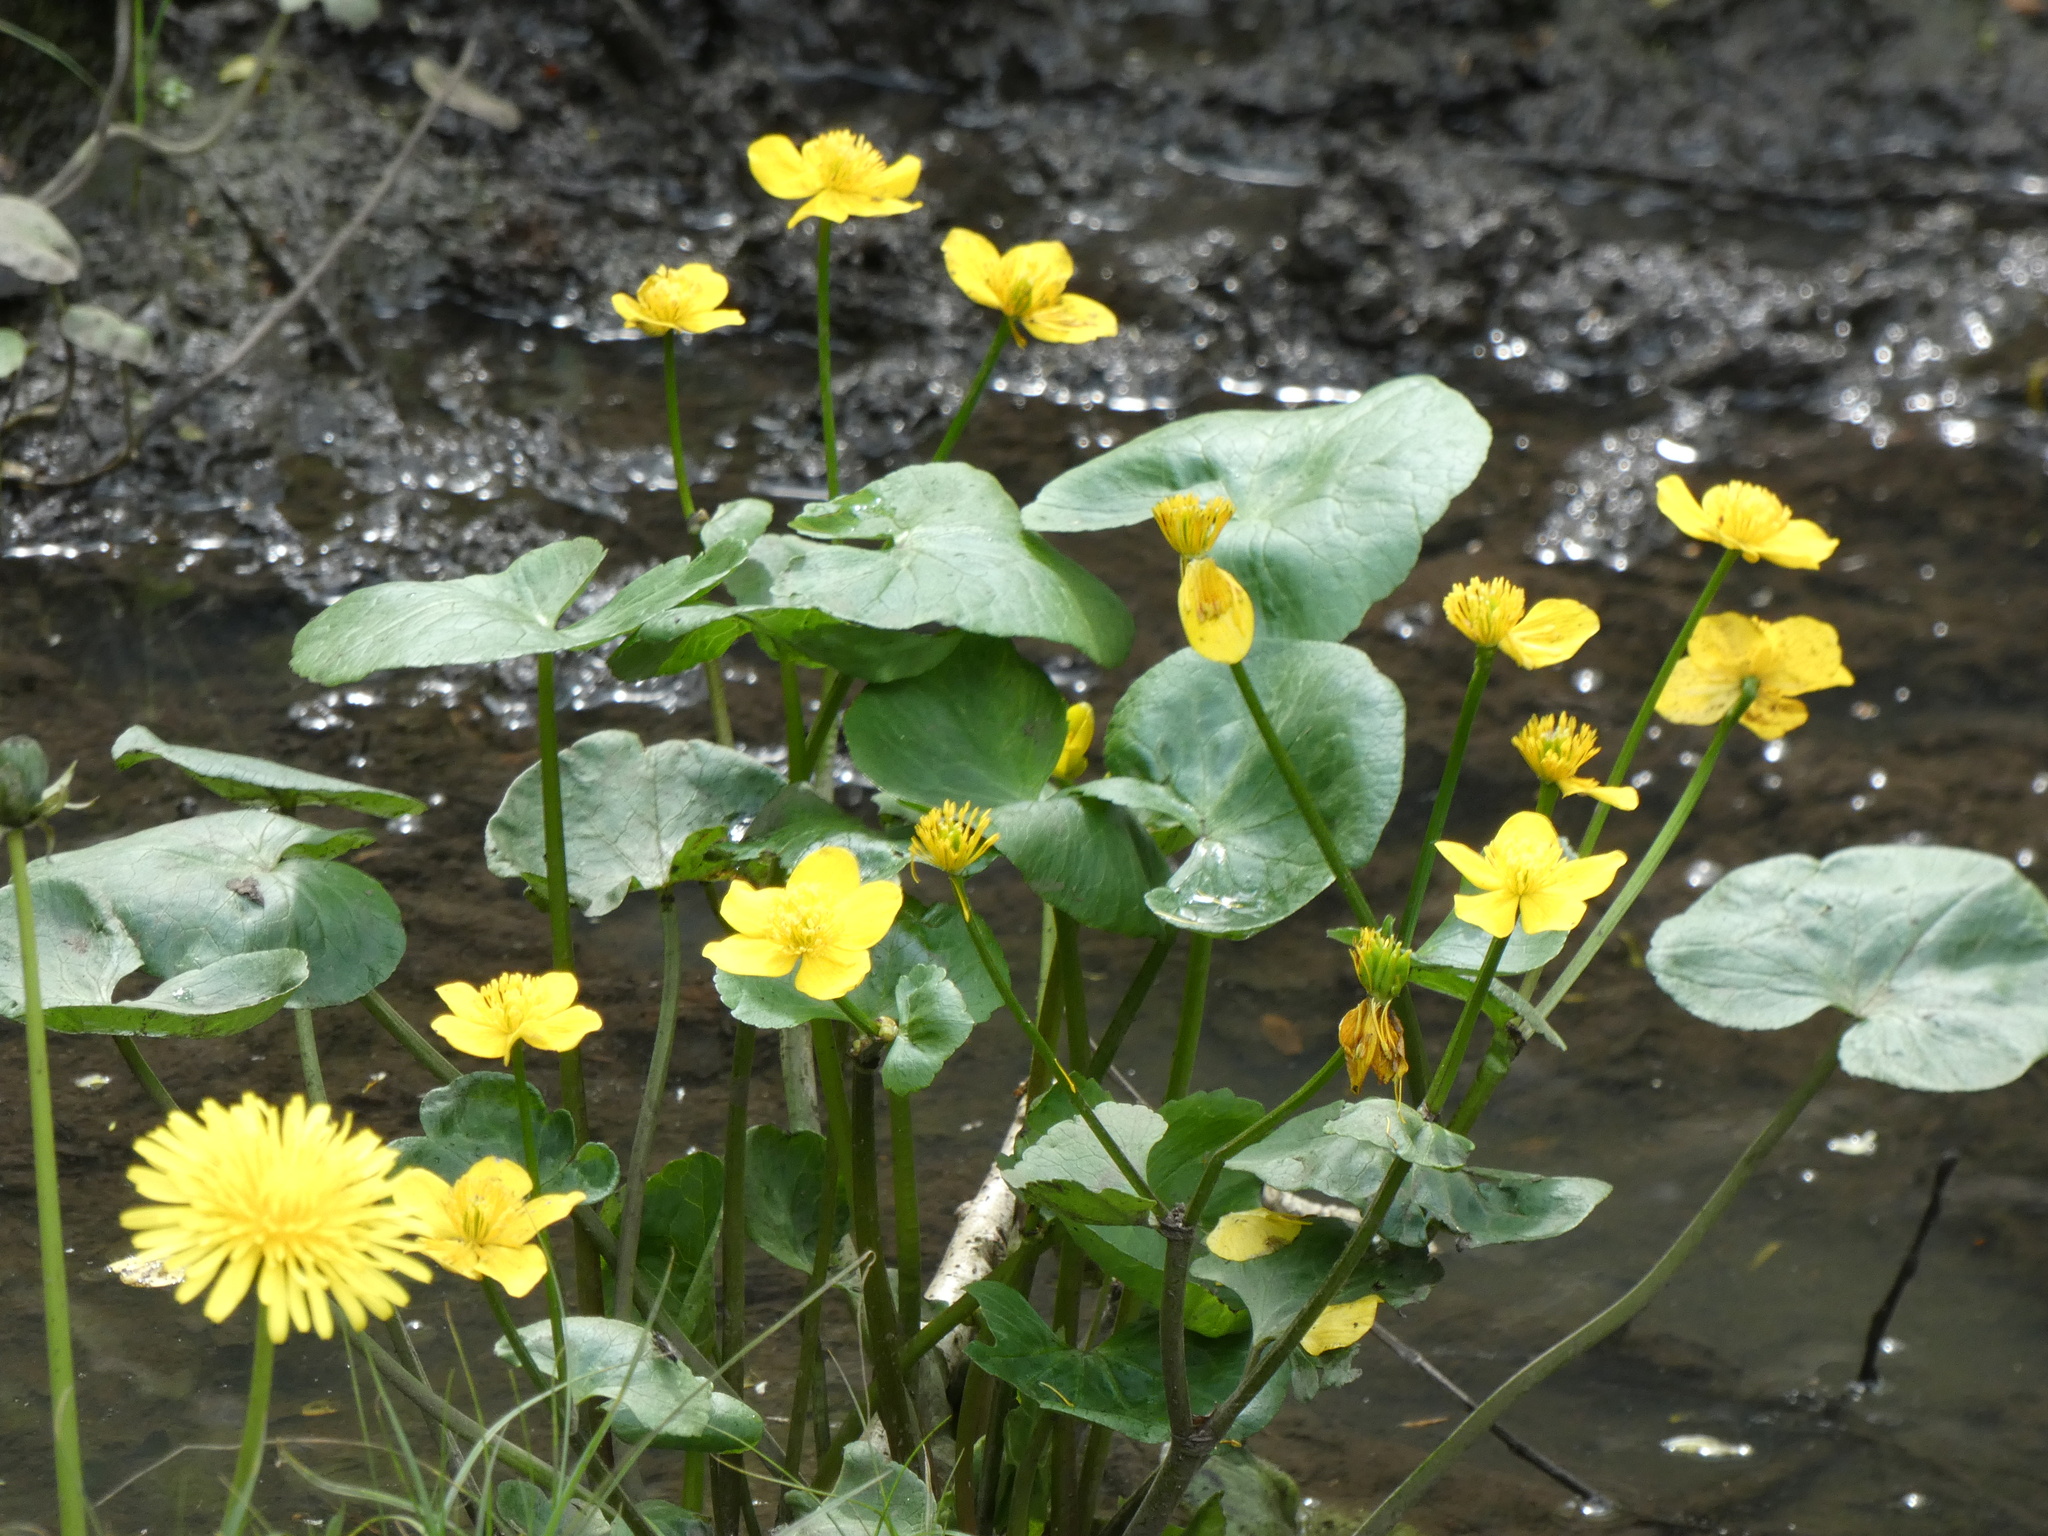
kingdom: Plantae
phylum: Tracheophyta
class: Magnoliopsida
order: Ranunculales
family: Ranunculaceae
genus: Caltha
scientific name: Caltha palustris
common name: Marsh marigold
